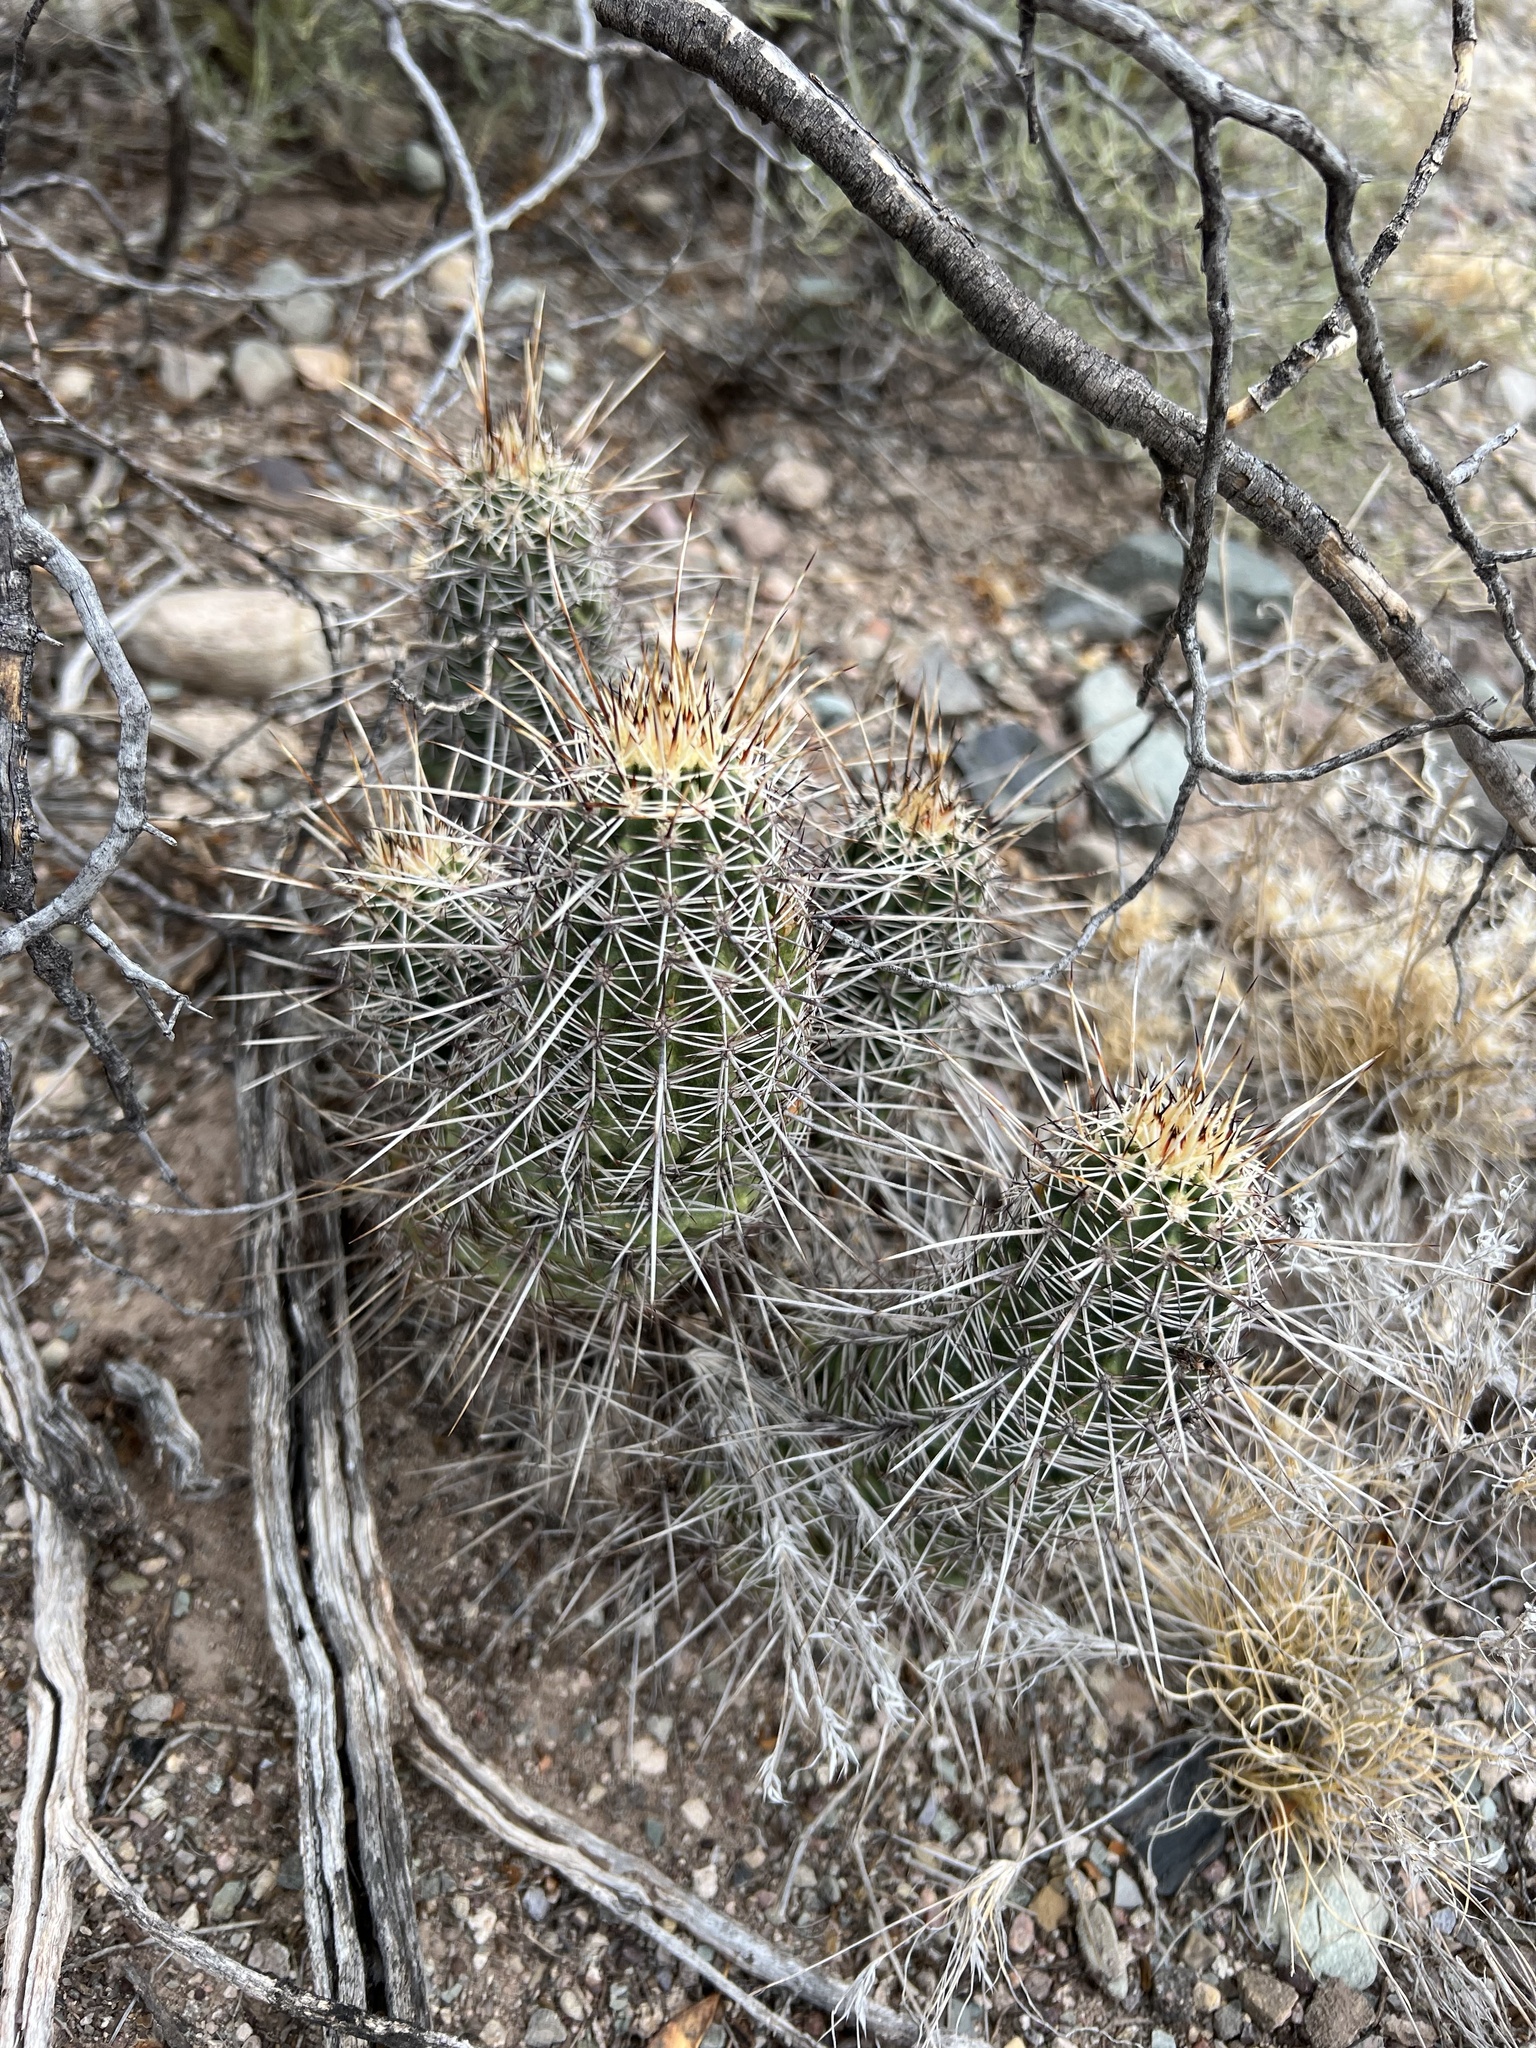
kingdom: Plantae
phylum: Tracheophyta
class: Magnoliopsida
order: Caryophyllales
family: Cactaceae
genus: Echinocereus
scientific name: Echinocereus fasciculatus
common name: Bundle hedgehog
